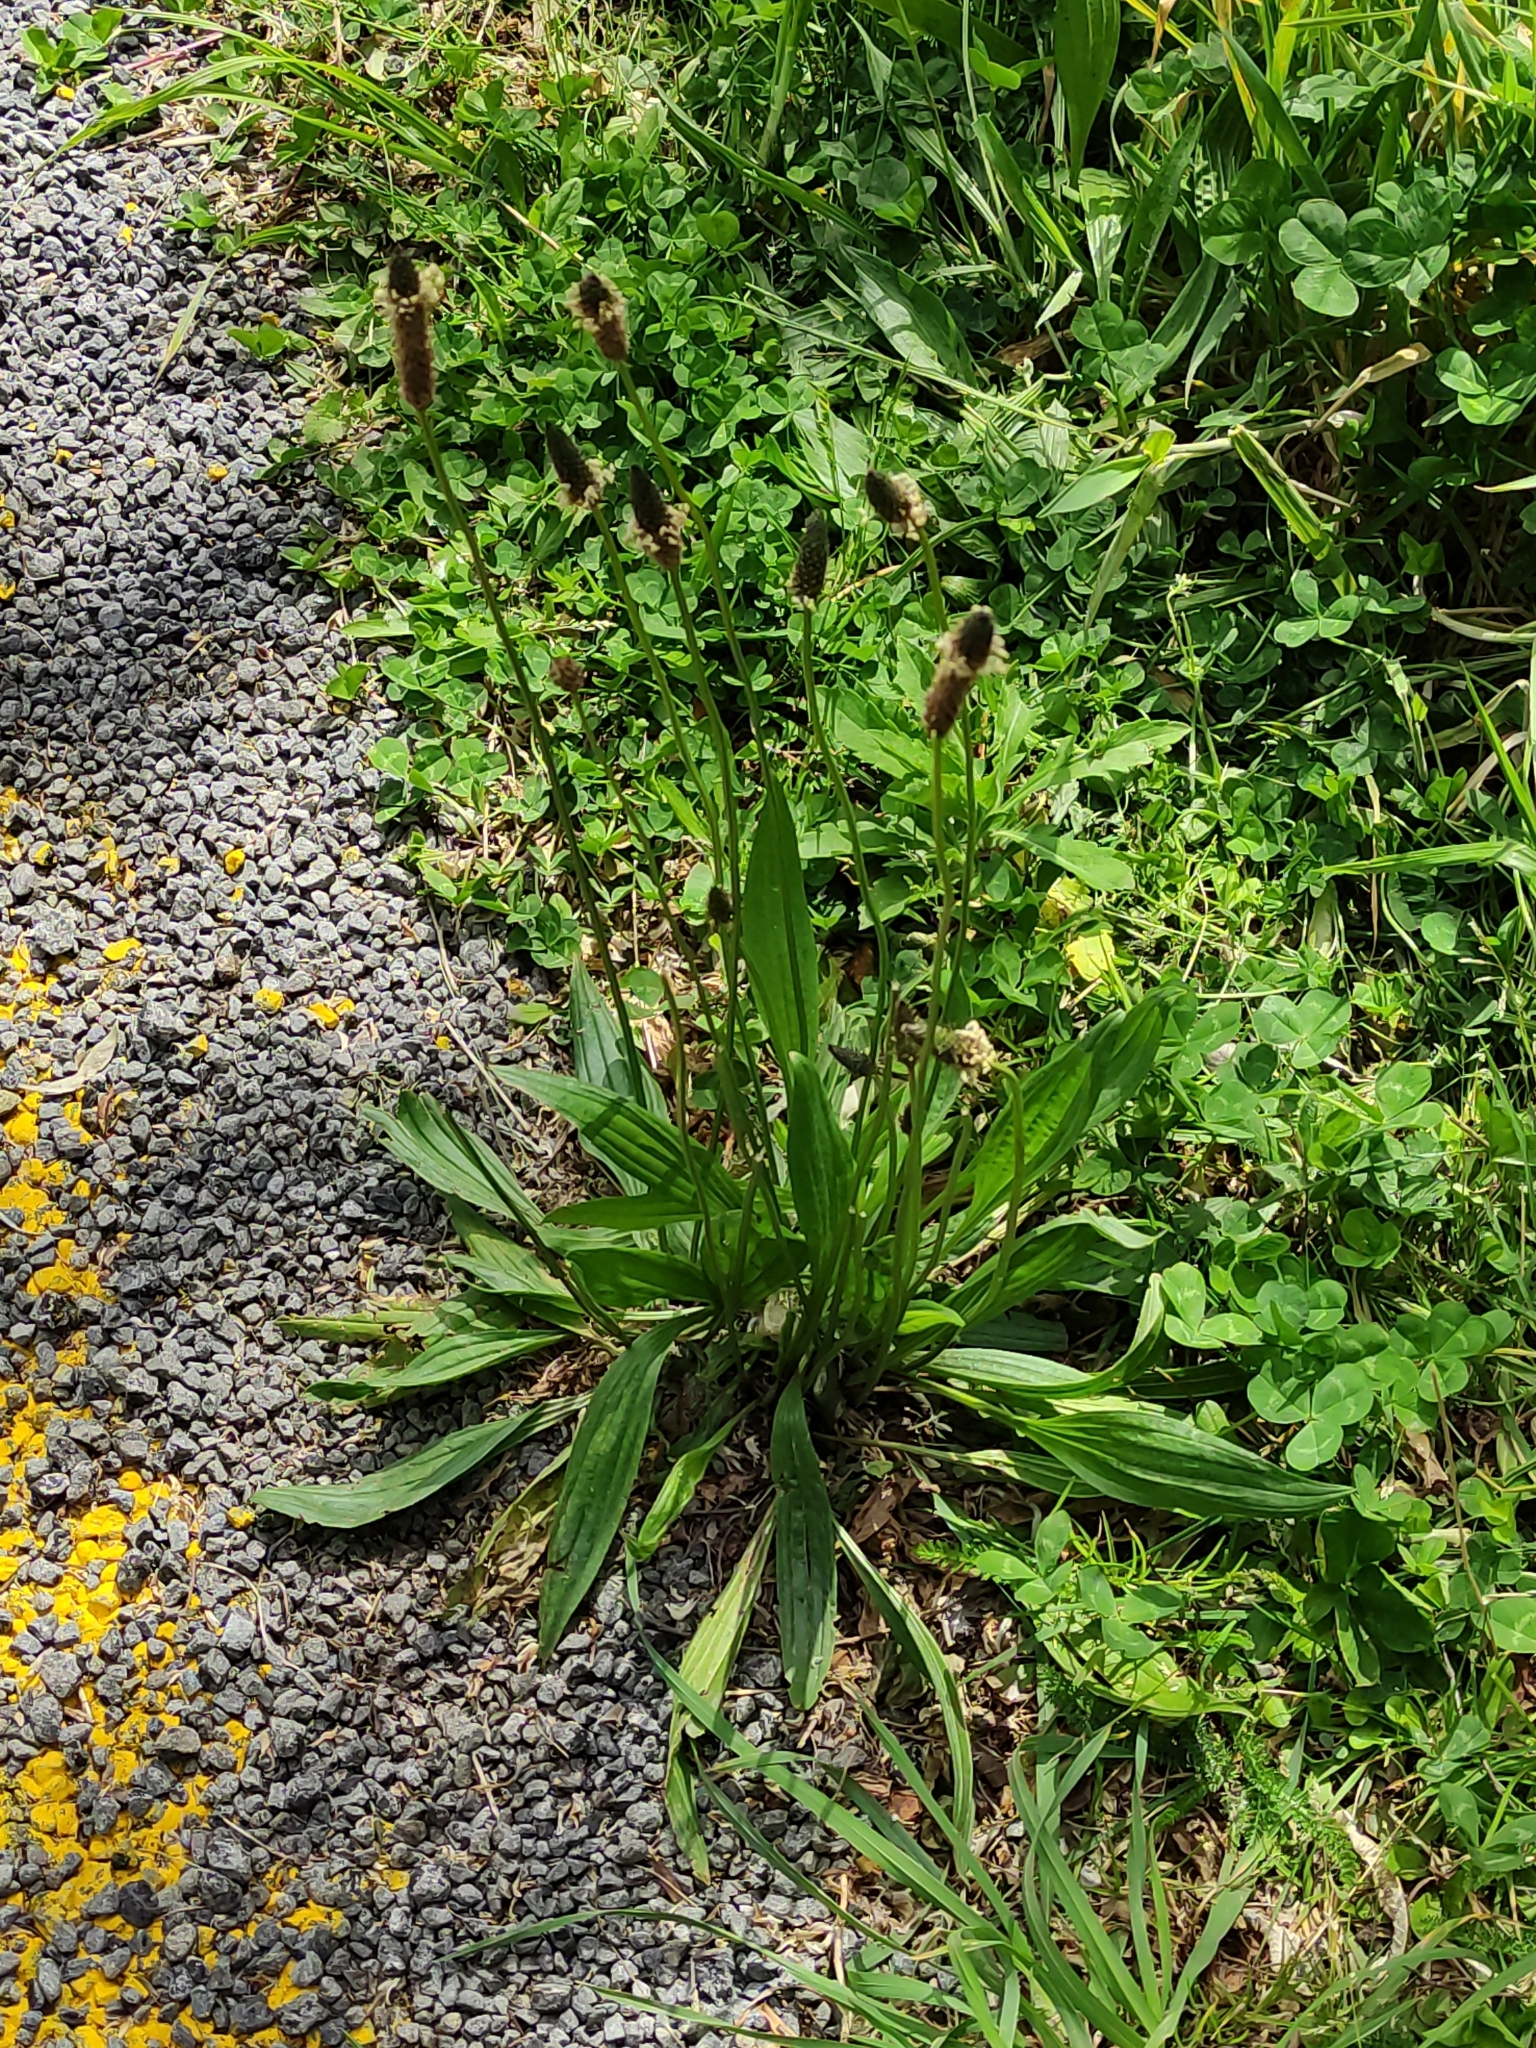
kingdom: Plantae
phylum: Tracheophyta
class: Magnoliopsida
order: Lamiales
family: Plantaginaceae
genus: Plantago
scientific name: Plantago lanceolata
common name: Ribwort plantain
